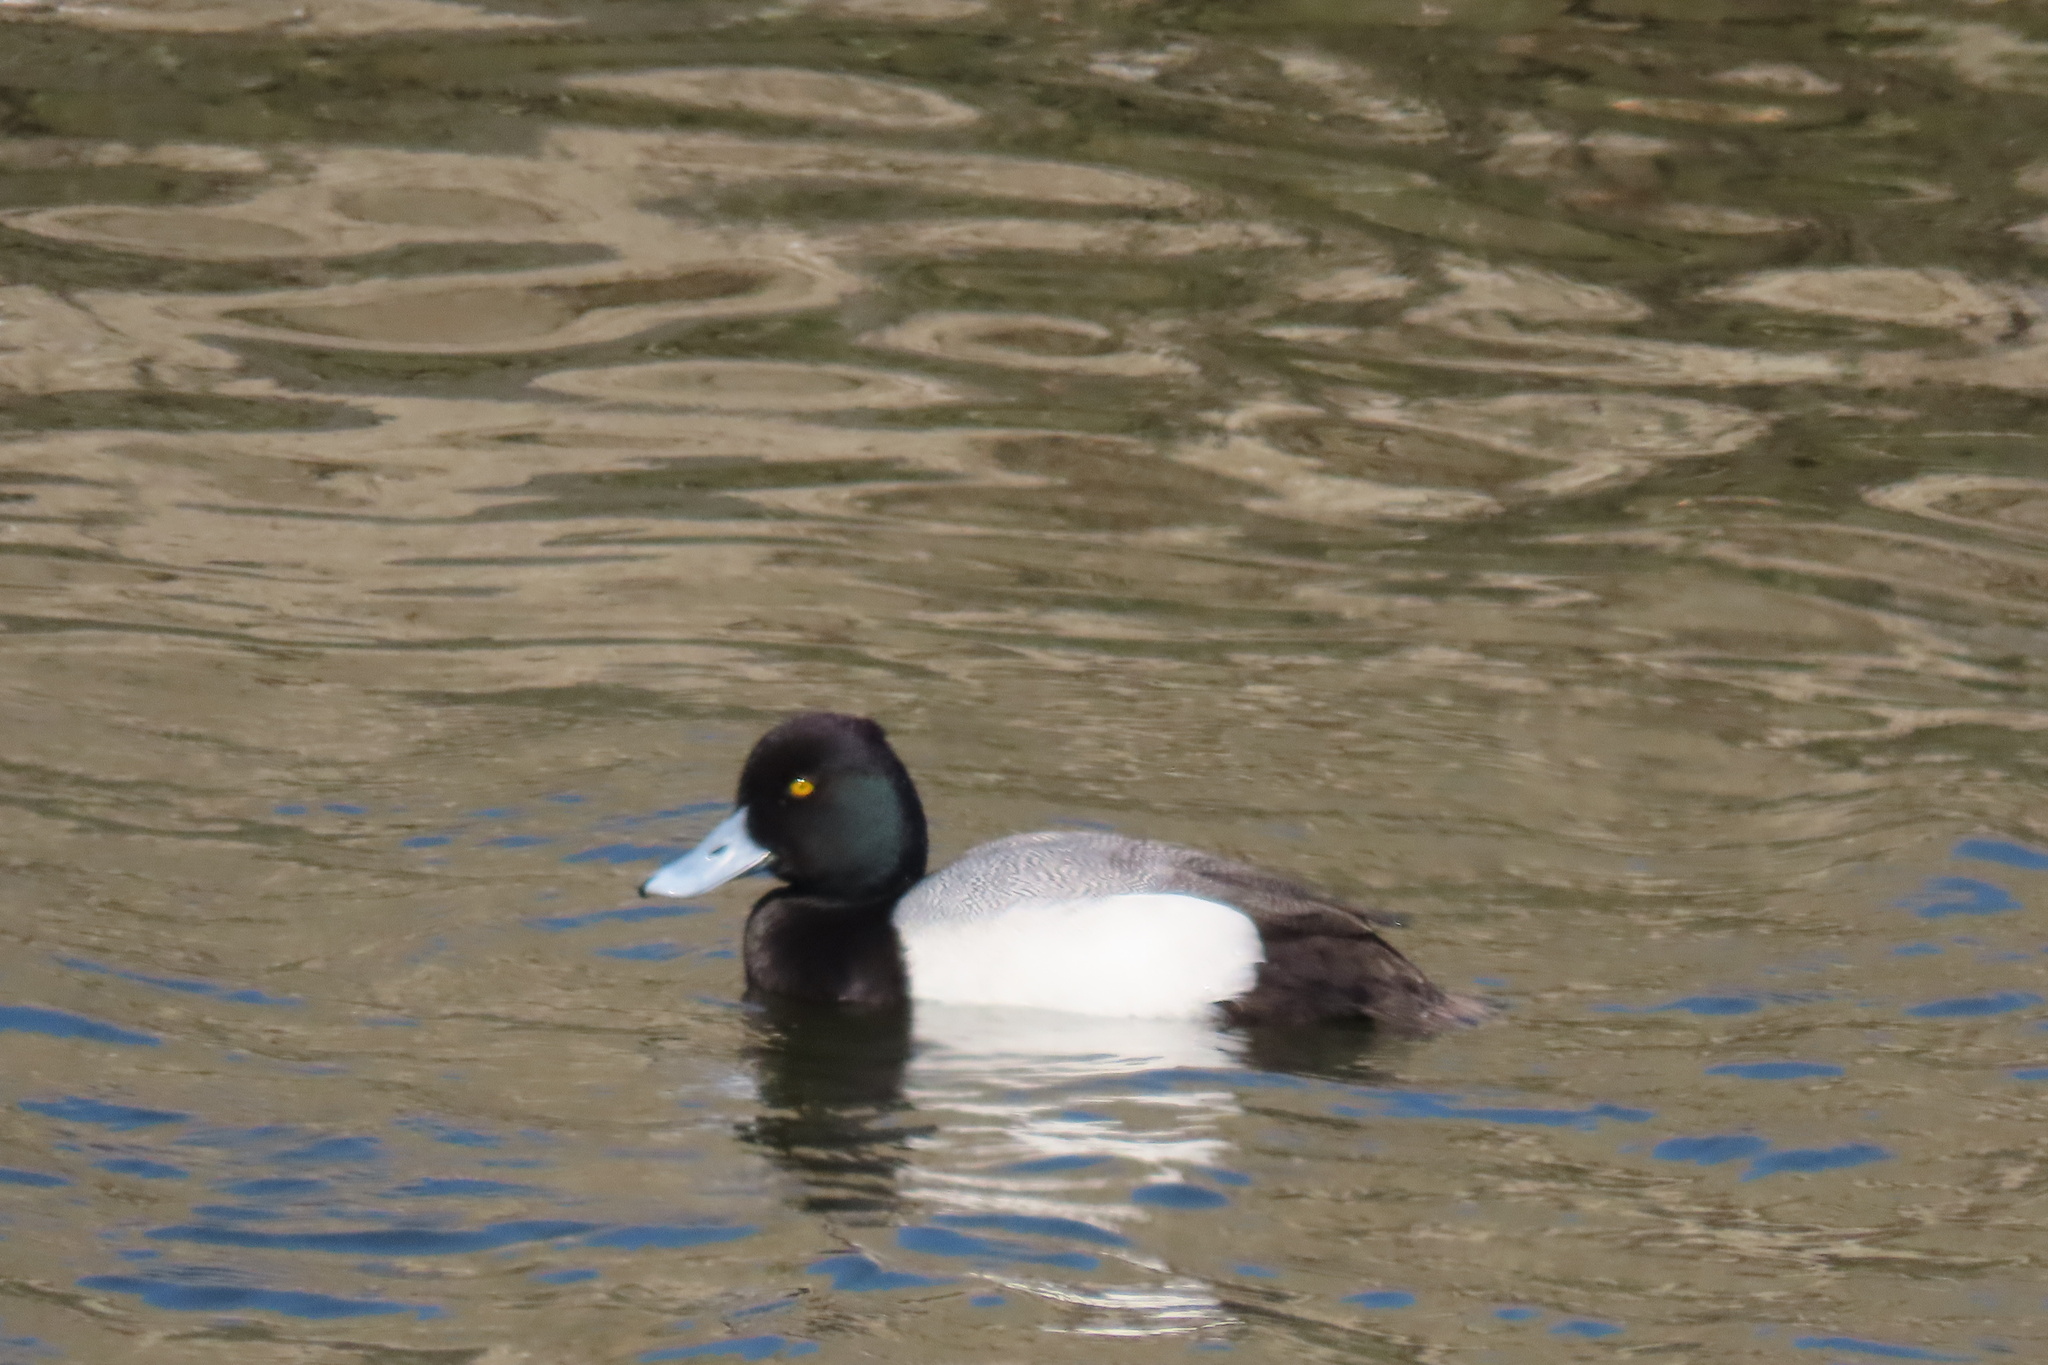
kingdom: Animalia
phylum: Chordata
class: Aves
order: Anseriformes
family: Anatidae
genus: Aythya
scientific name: Aythya affinis
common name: Lesser scaup
